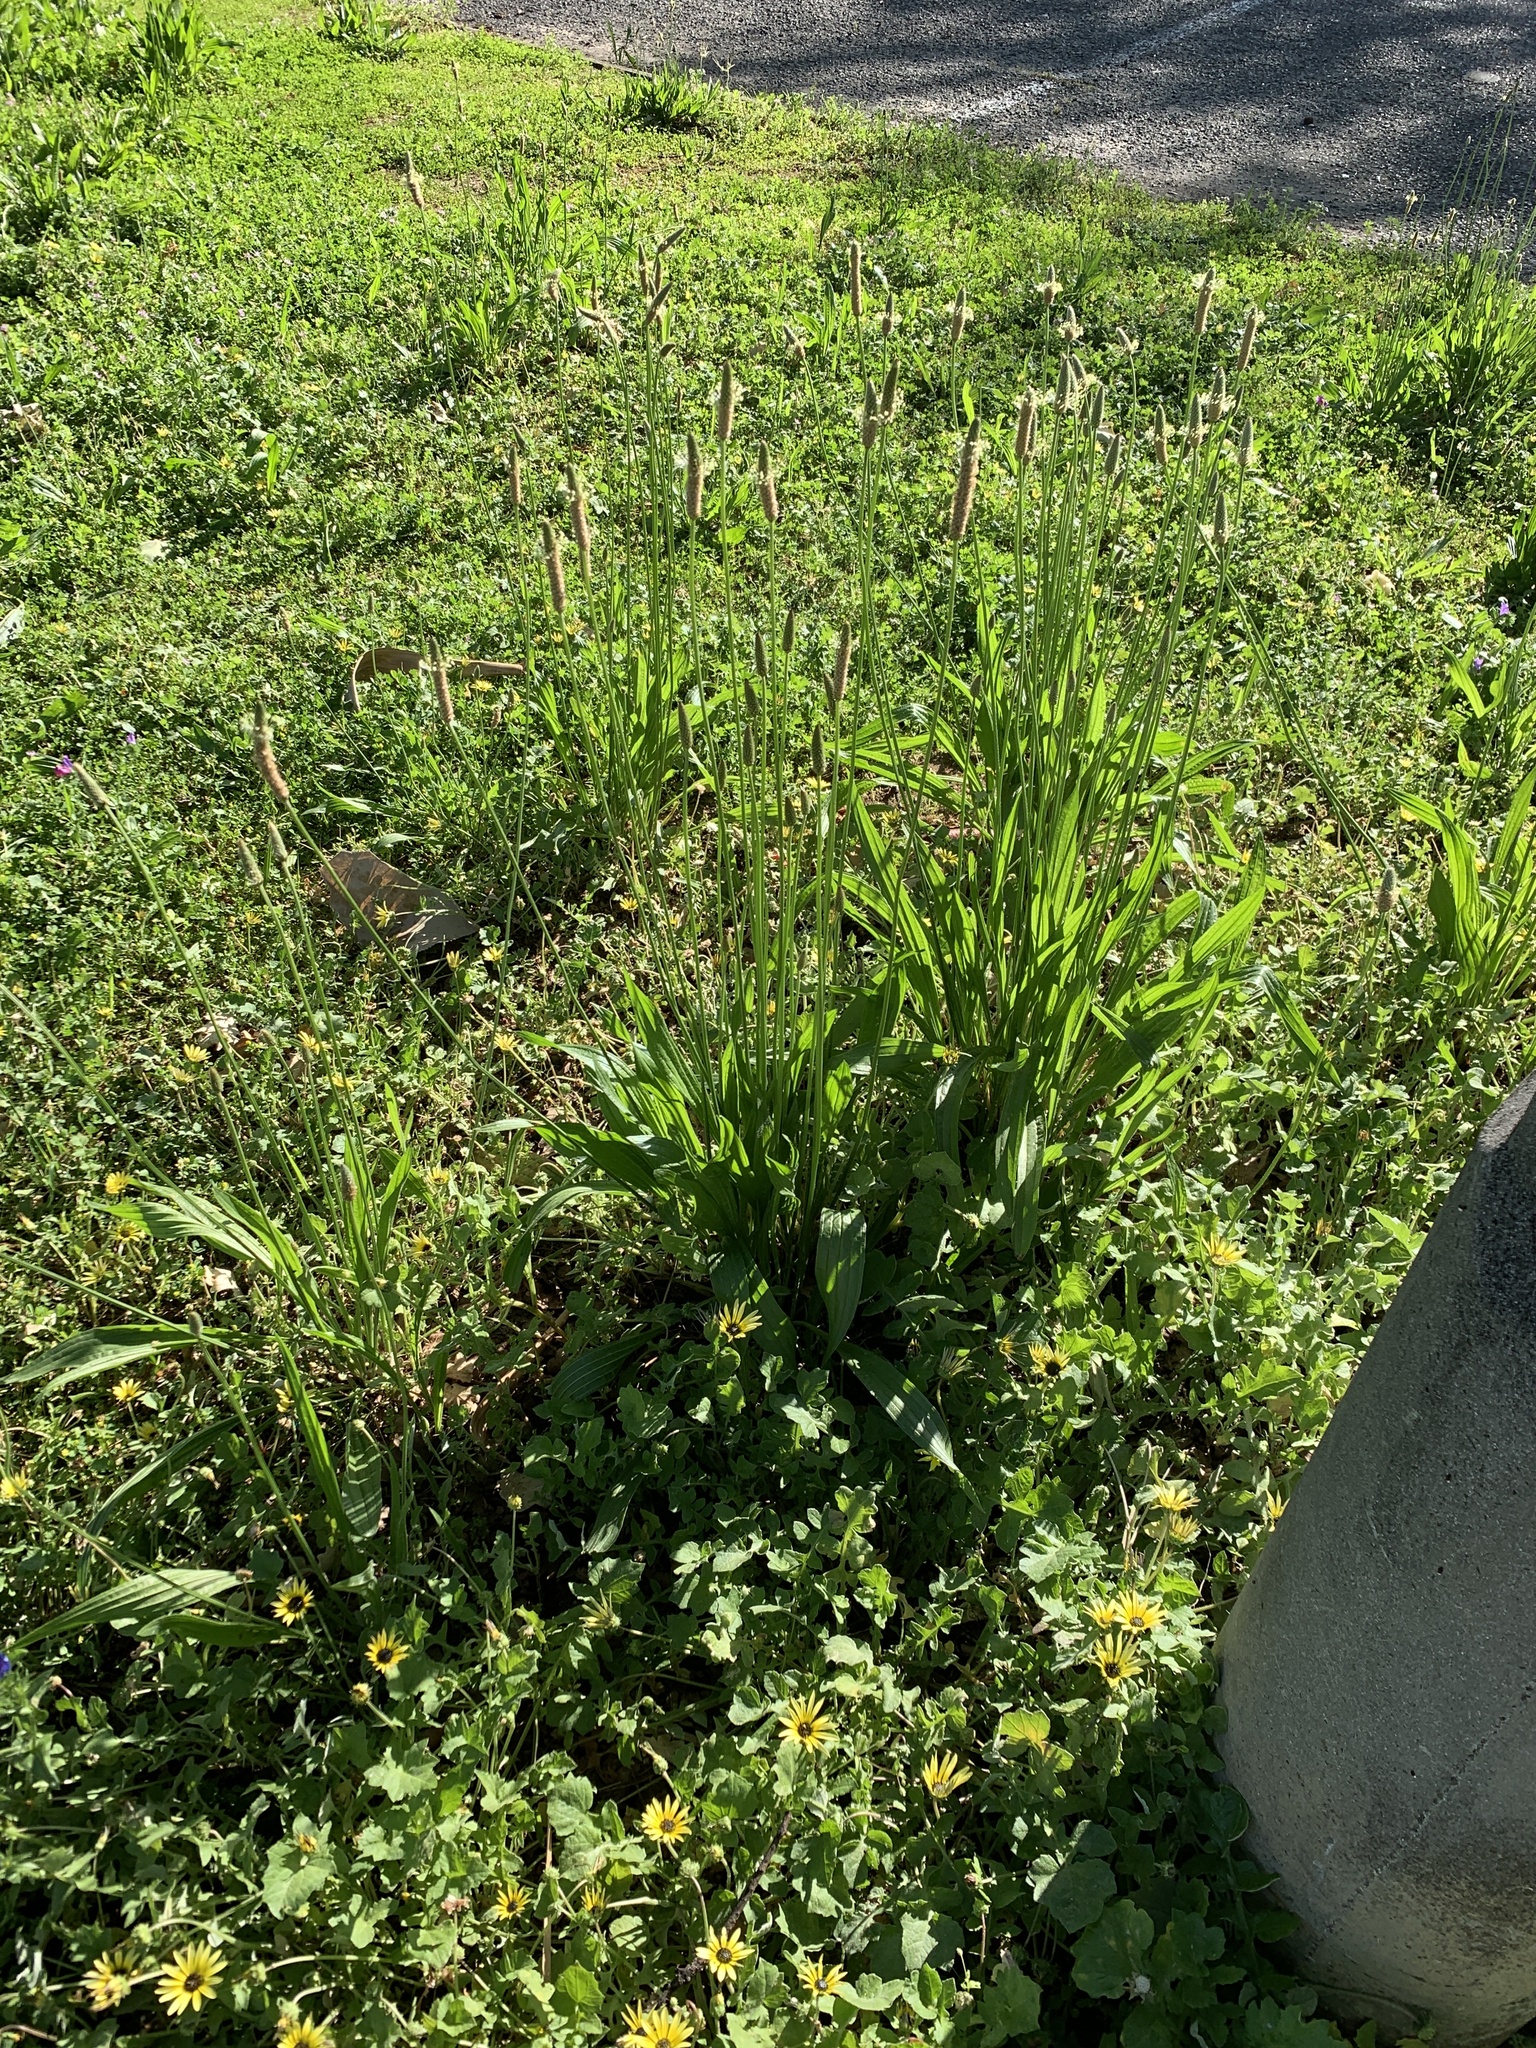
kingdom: Plantae
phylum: Tracheophyta
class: Magnoliopsida
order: Lamiales
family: Plantaginaceae
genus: Plantago
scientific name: Plantago lanceolata
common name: Ribwort plantain
